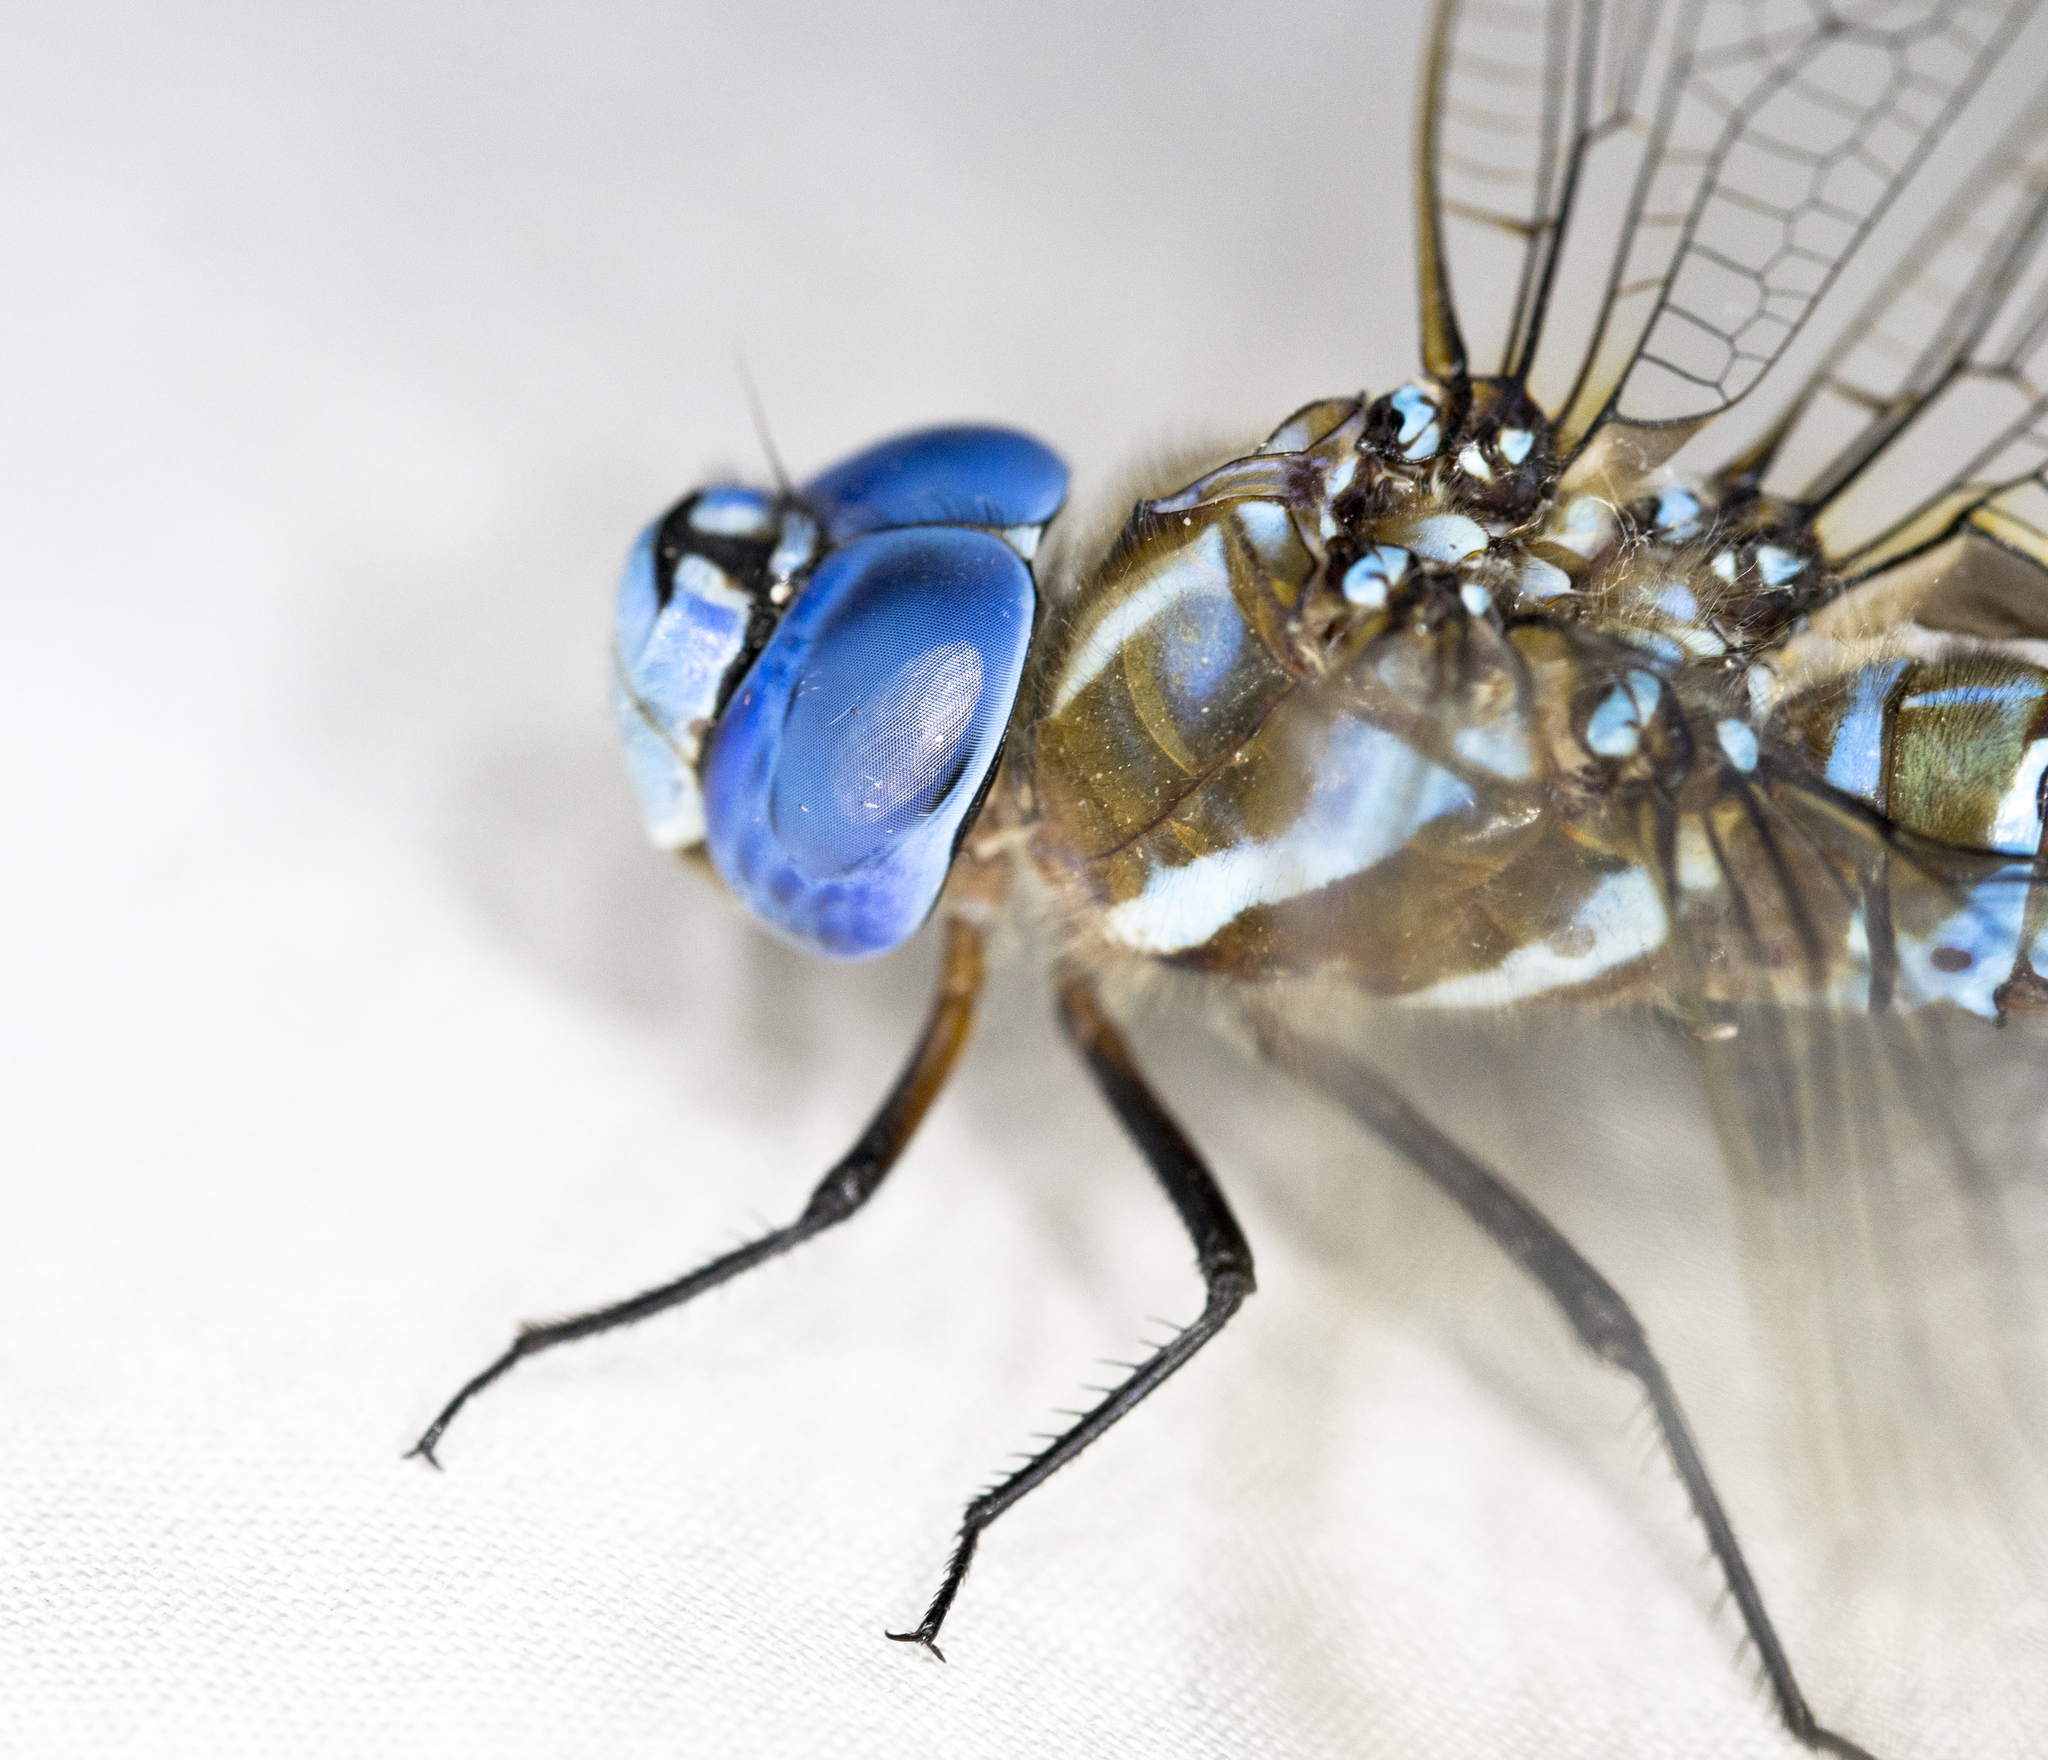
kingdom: Animalia
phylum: Arthropoda
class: Insecta
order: Odonata
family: Aeshnidae
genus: Rhionaeschna
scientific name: Rhionaeschna multicolor
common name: Blue-eyed darner
